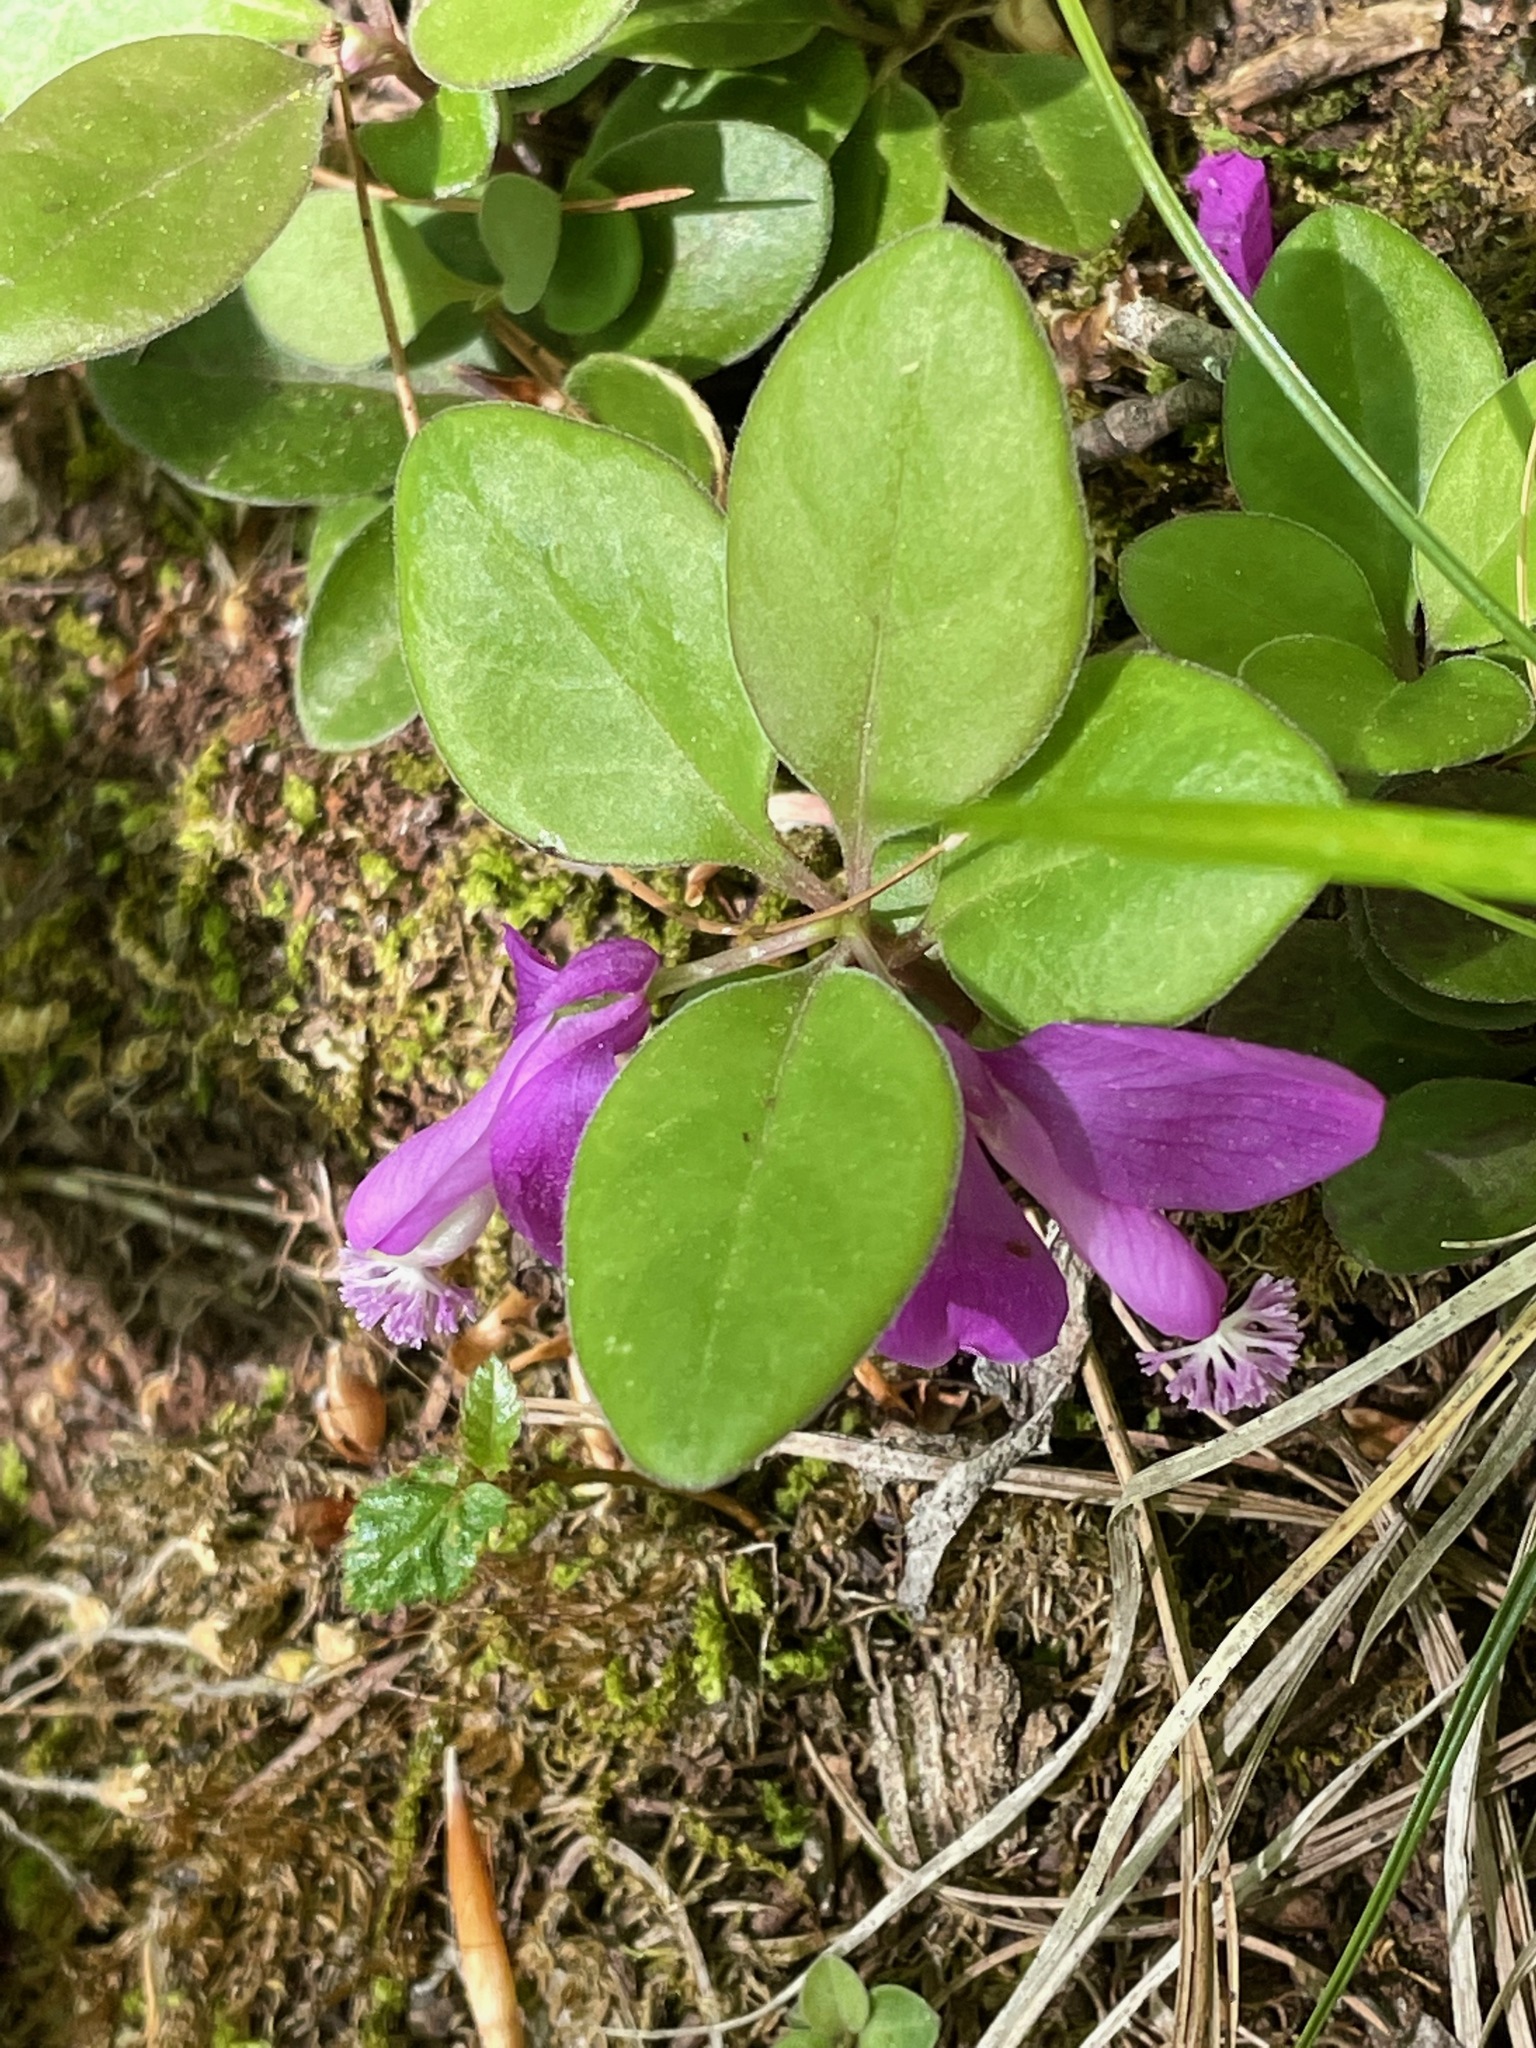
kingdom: Plantae
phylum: Tracheophyta
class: Magnoliopsida
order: Fabales
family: Polygalaceae
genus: Polygaloides
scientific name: Polygaloides paucifolia
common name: Bird-on-the-wing
